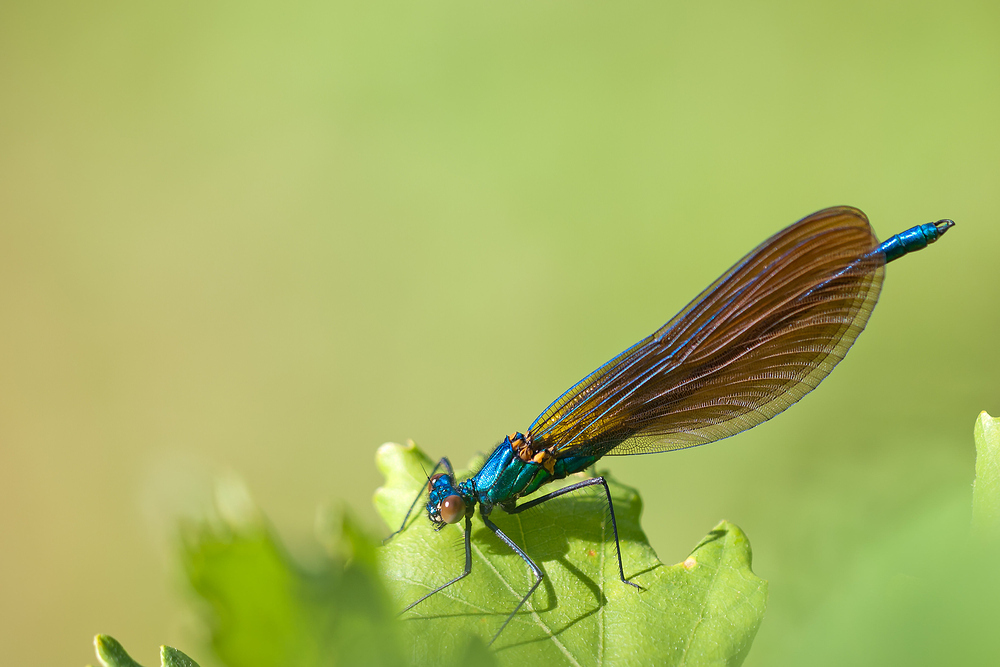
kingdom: Animalia
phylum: Arthropoda
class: Insecta
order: Odonata
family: Calopterygidae
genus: Calopteryx
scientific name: Calopteryx virgo
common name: Beautiful demoiselle
